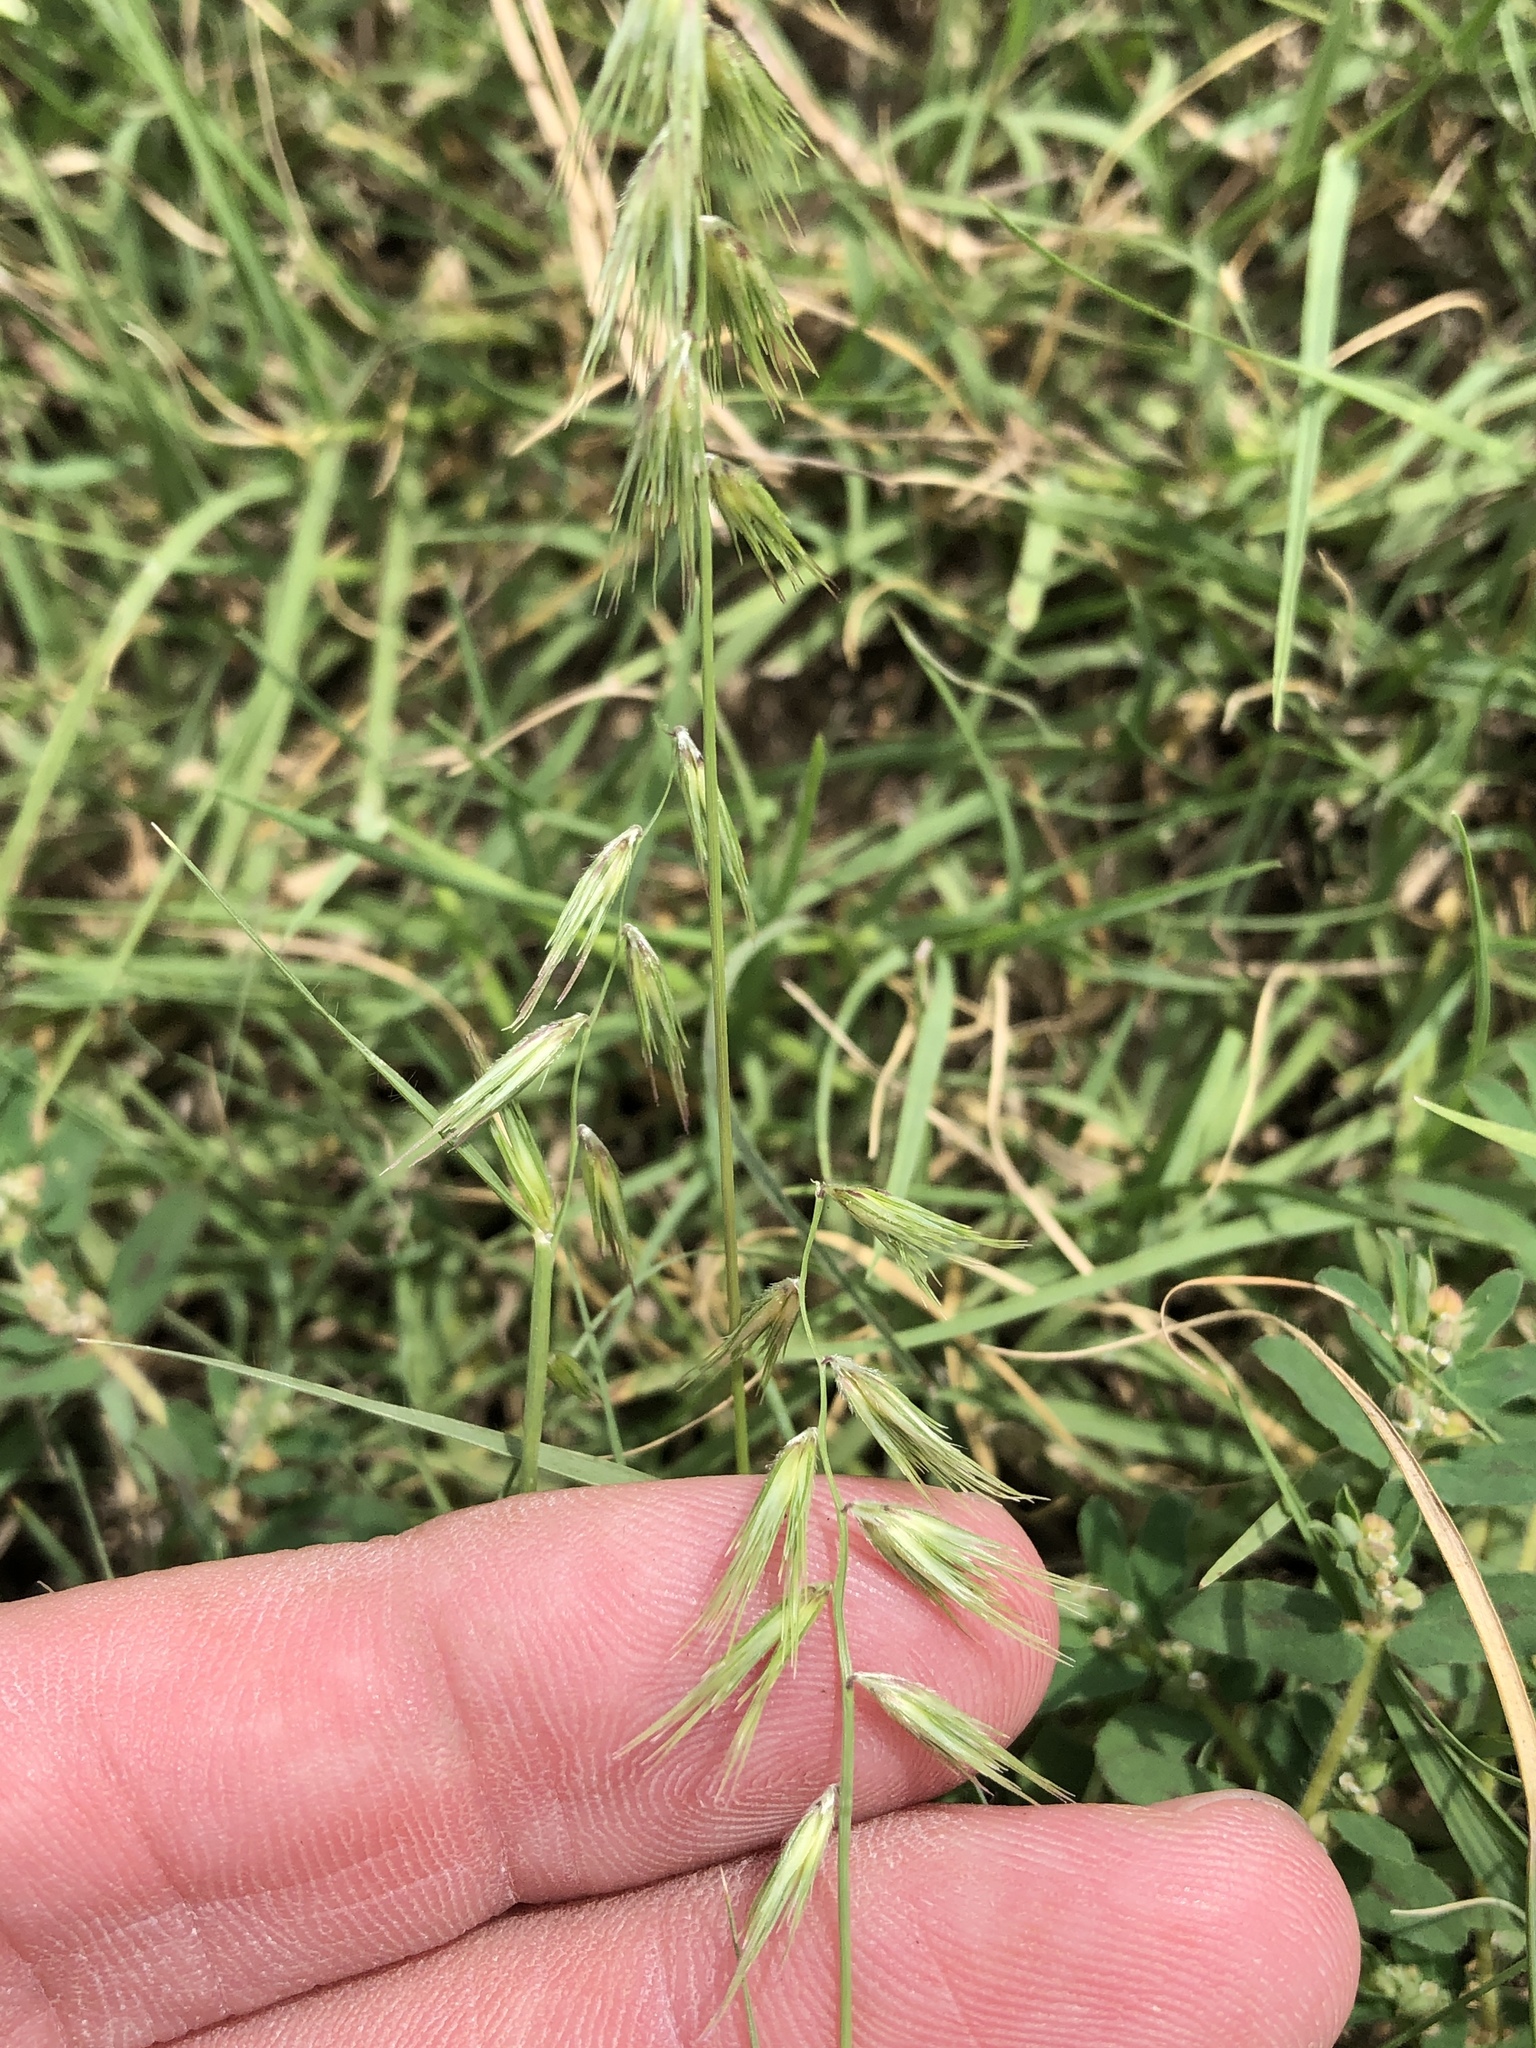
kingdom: Plantae
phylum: Tracheophyta
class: Liliopsida
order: Poales
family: Poaceae
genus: Bouteloua
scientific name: Bouteloua rigidiseta
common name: Texas grama
